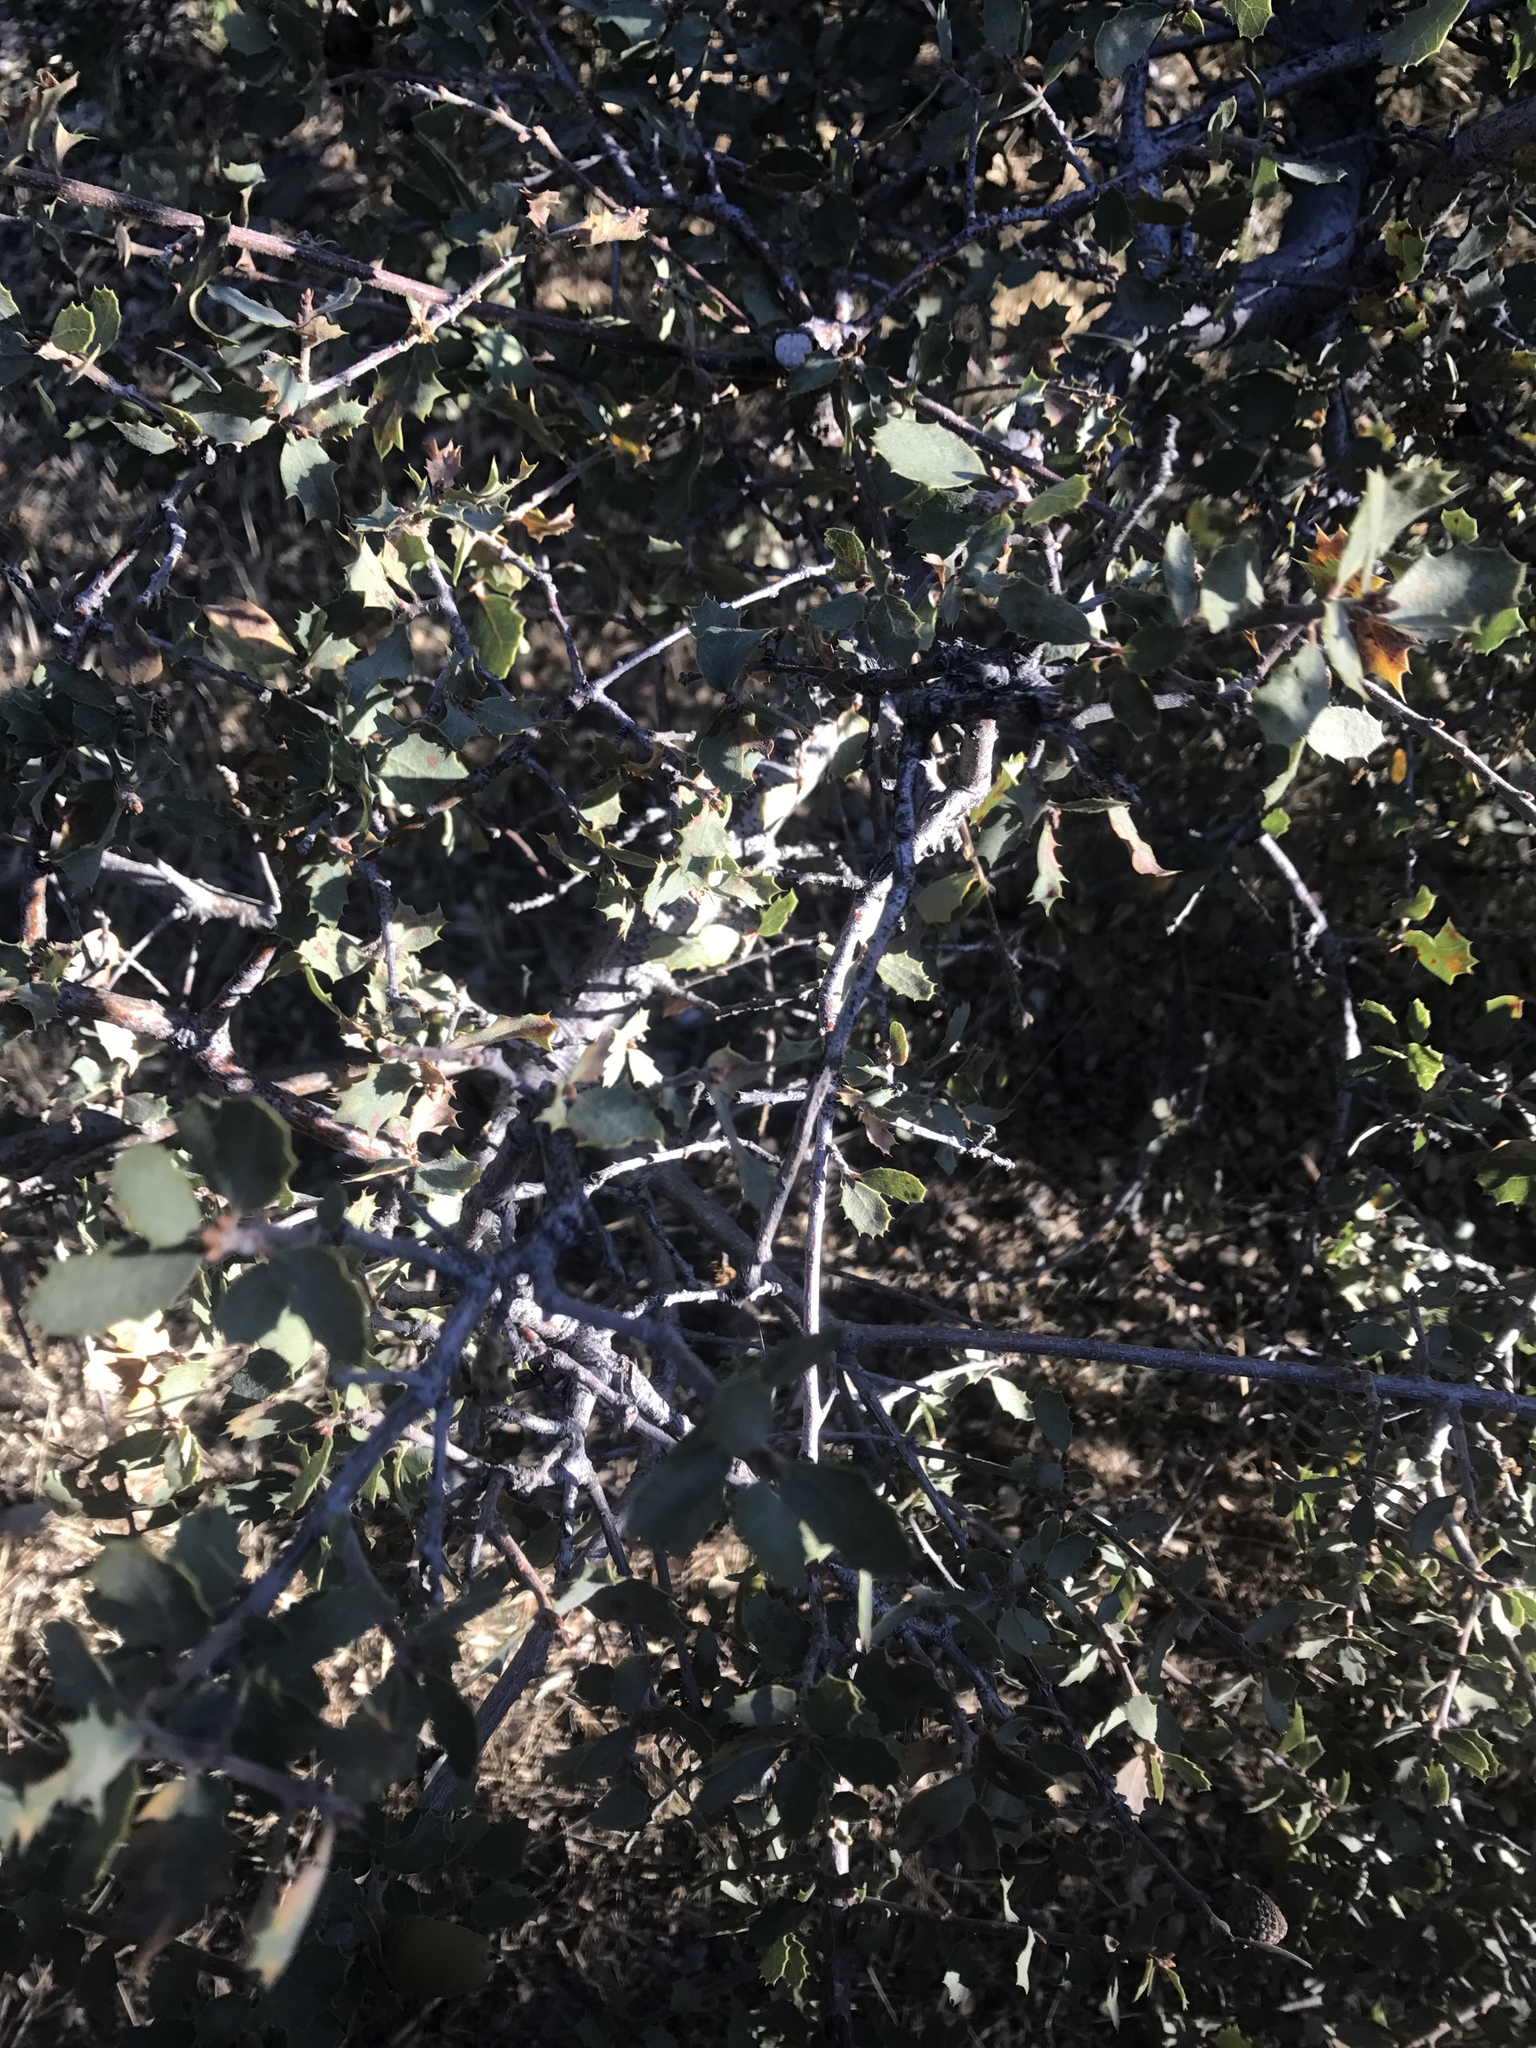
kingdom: Plantae
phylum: Tracheophyta
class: Magnoliopsida
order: Fagales
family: Fagaceae
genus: Quercus
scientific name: Quercus john-tuckeri
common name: Tucker's oak
